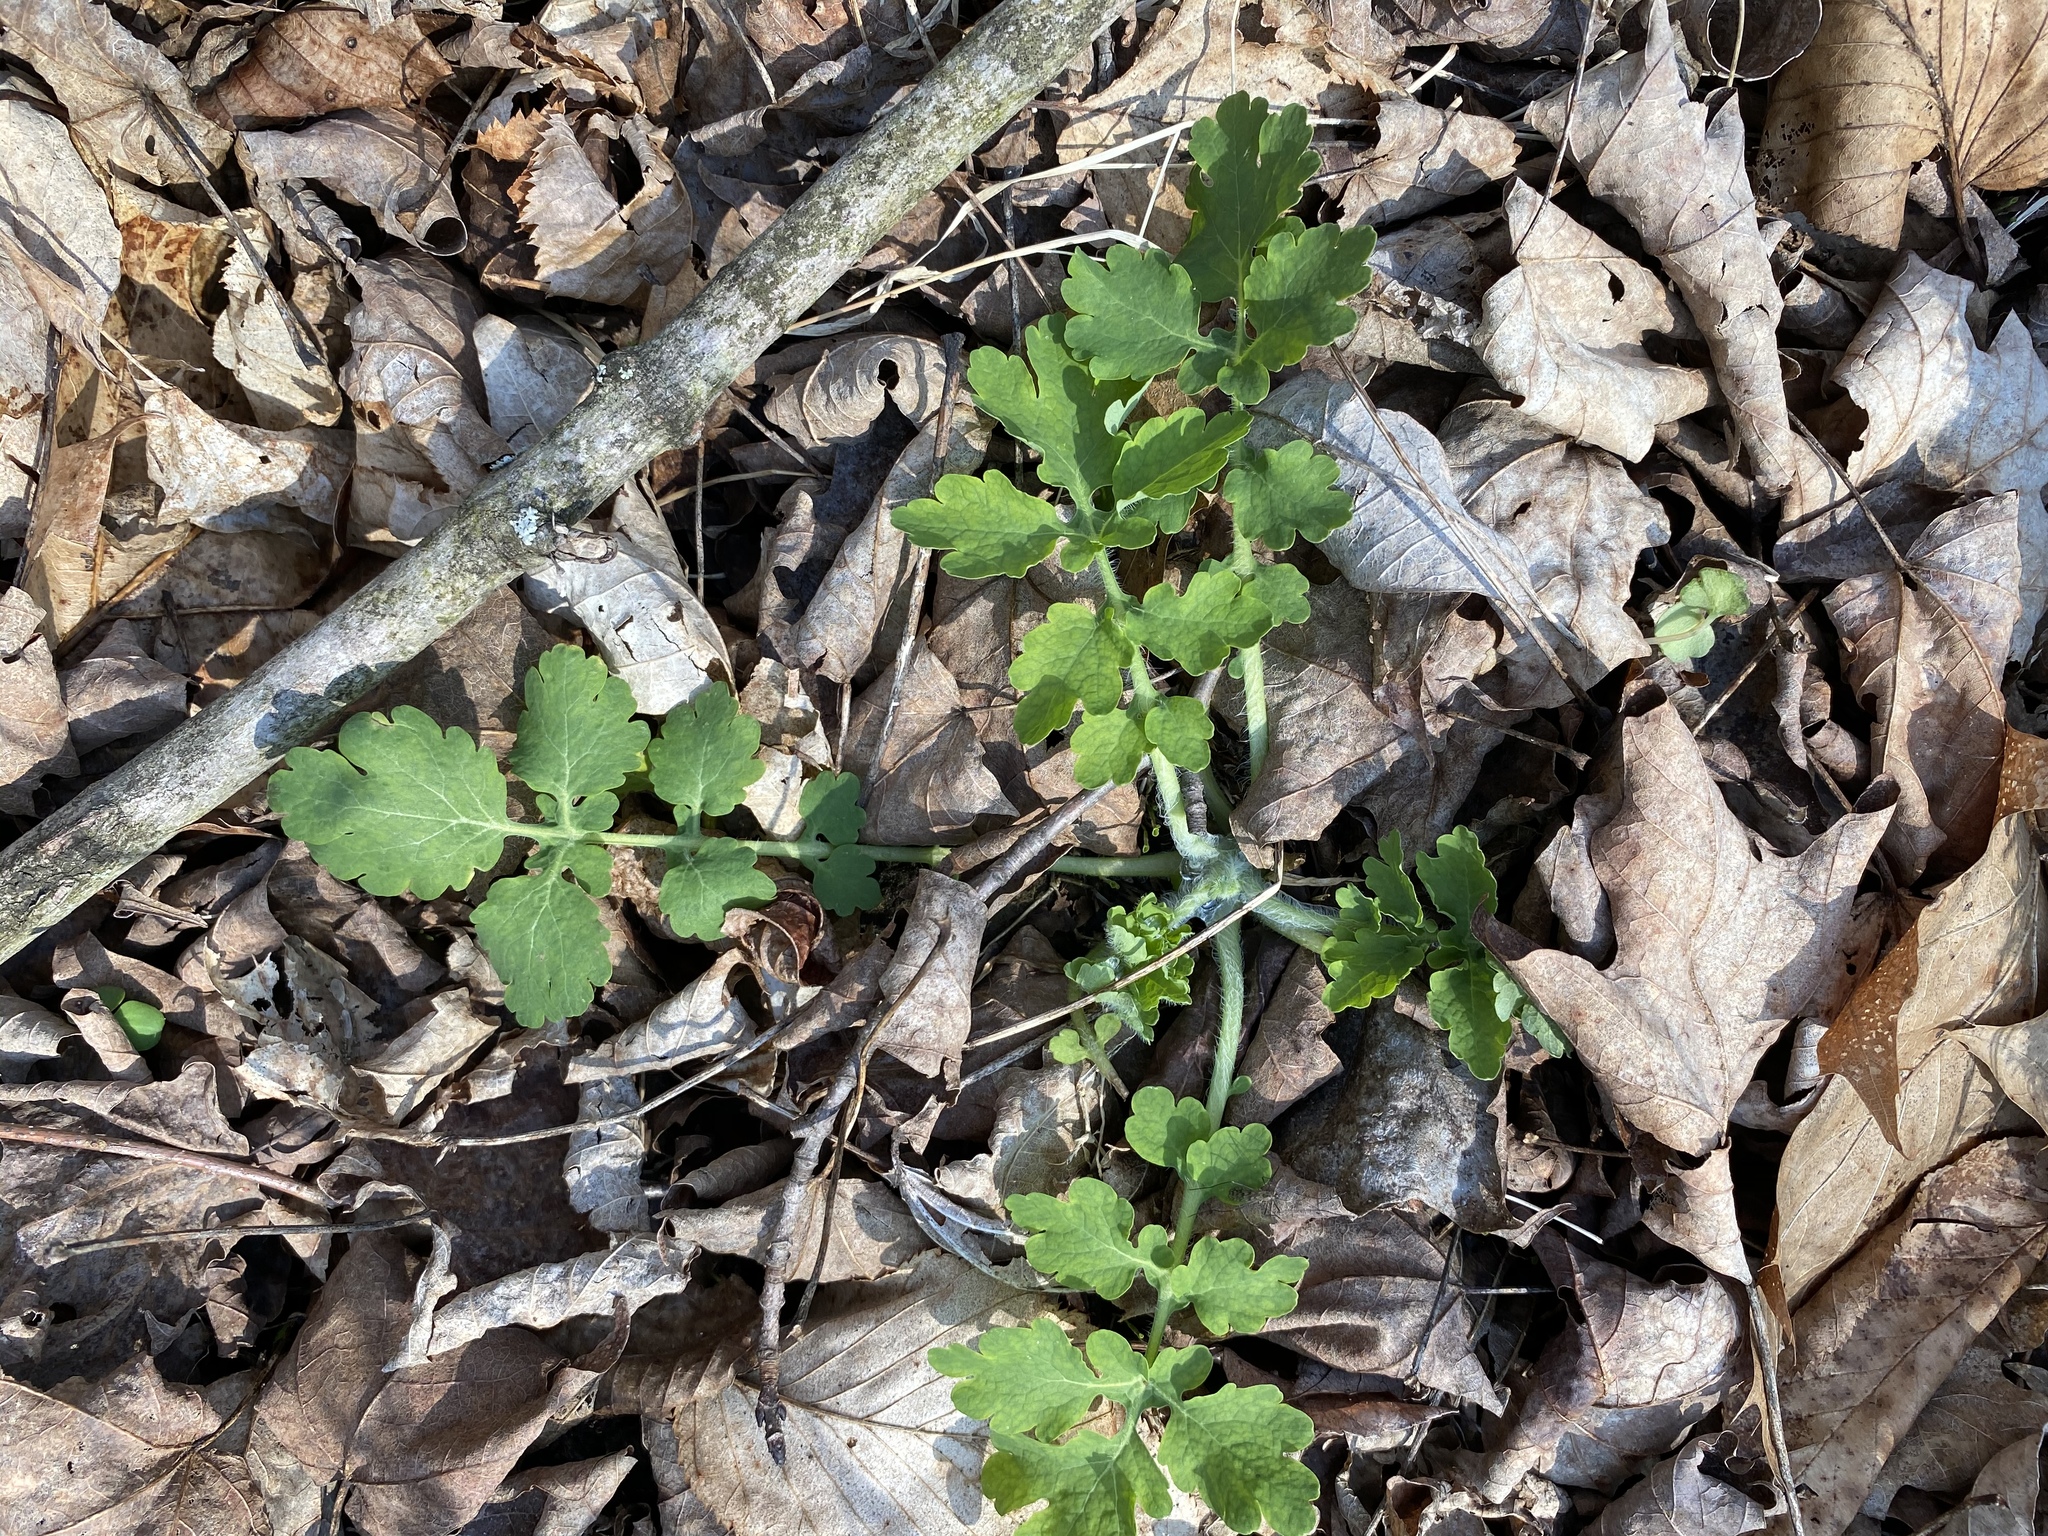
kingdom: Plantae
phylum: Tracheophyta
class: Magnoliopsida
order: Ranunculales
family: Papaveraceae
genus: Chelidonium
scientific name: Chelidonium majus
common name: Greater celandine
